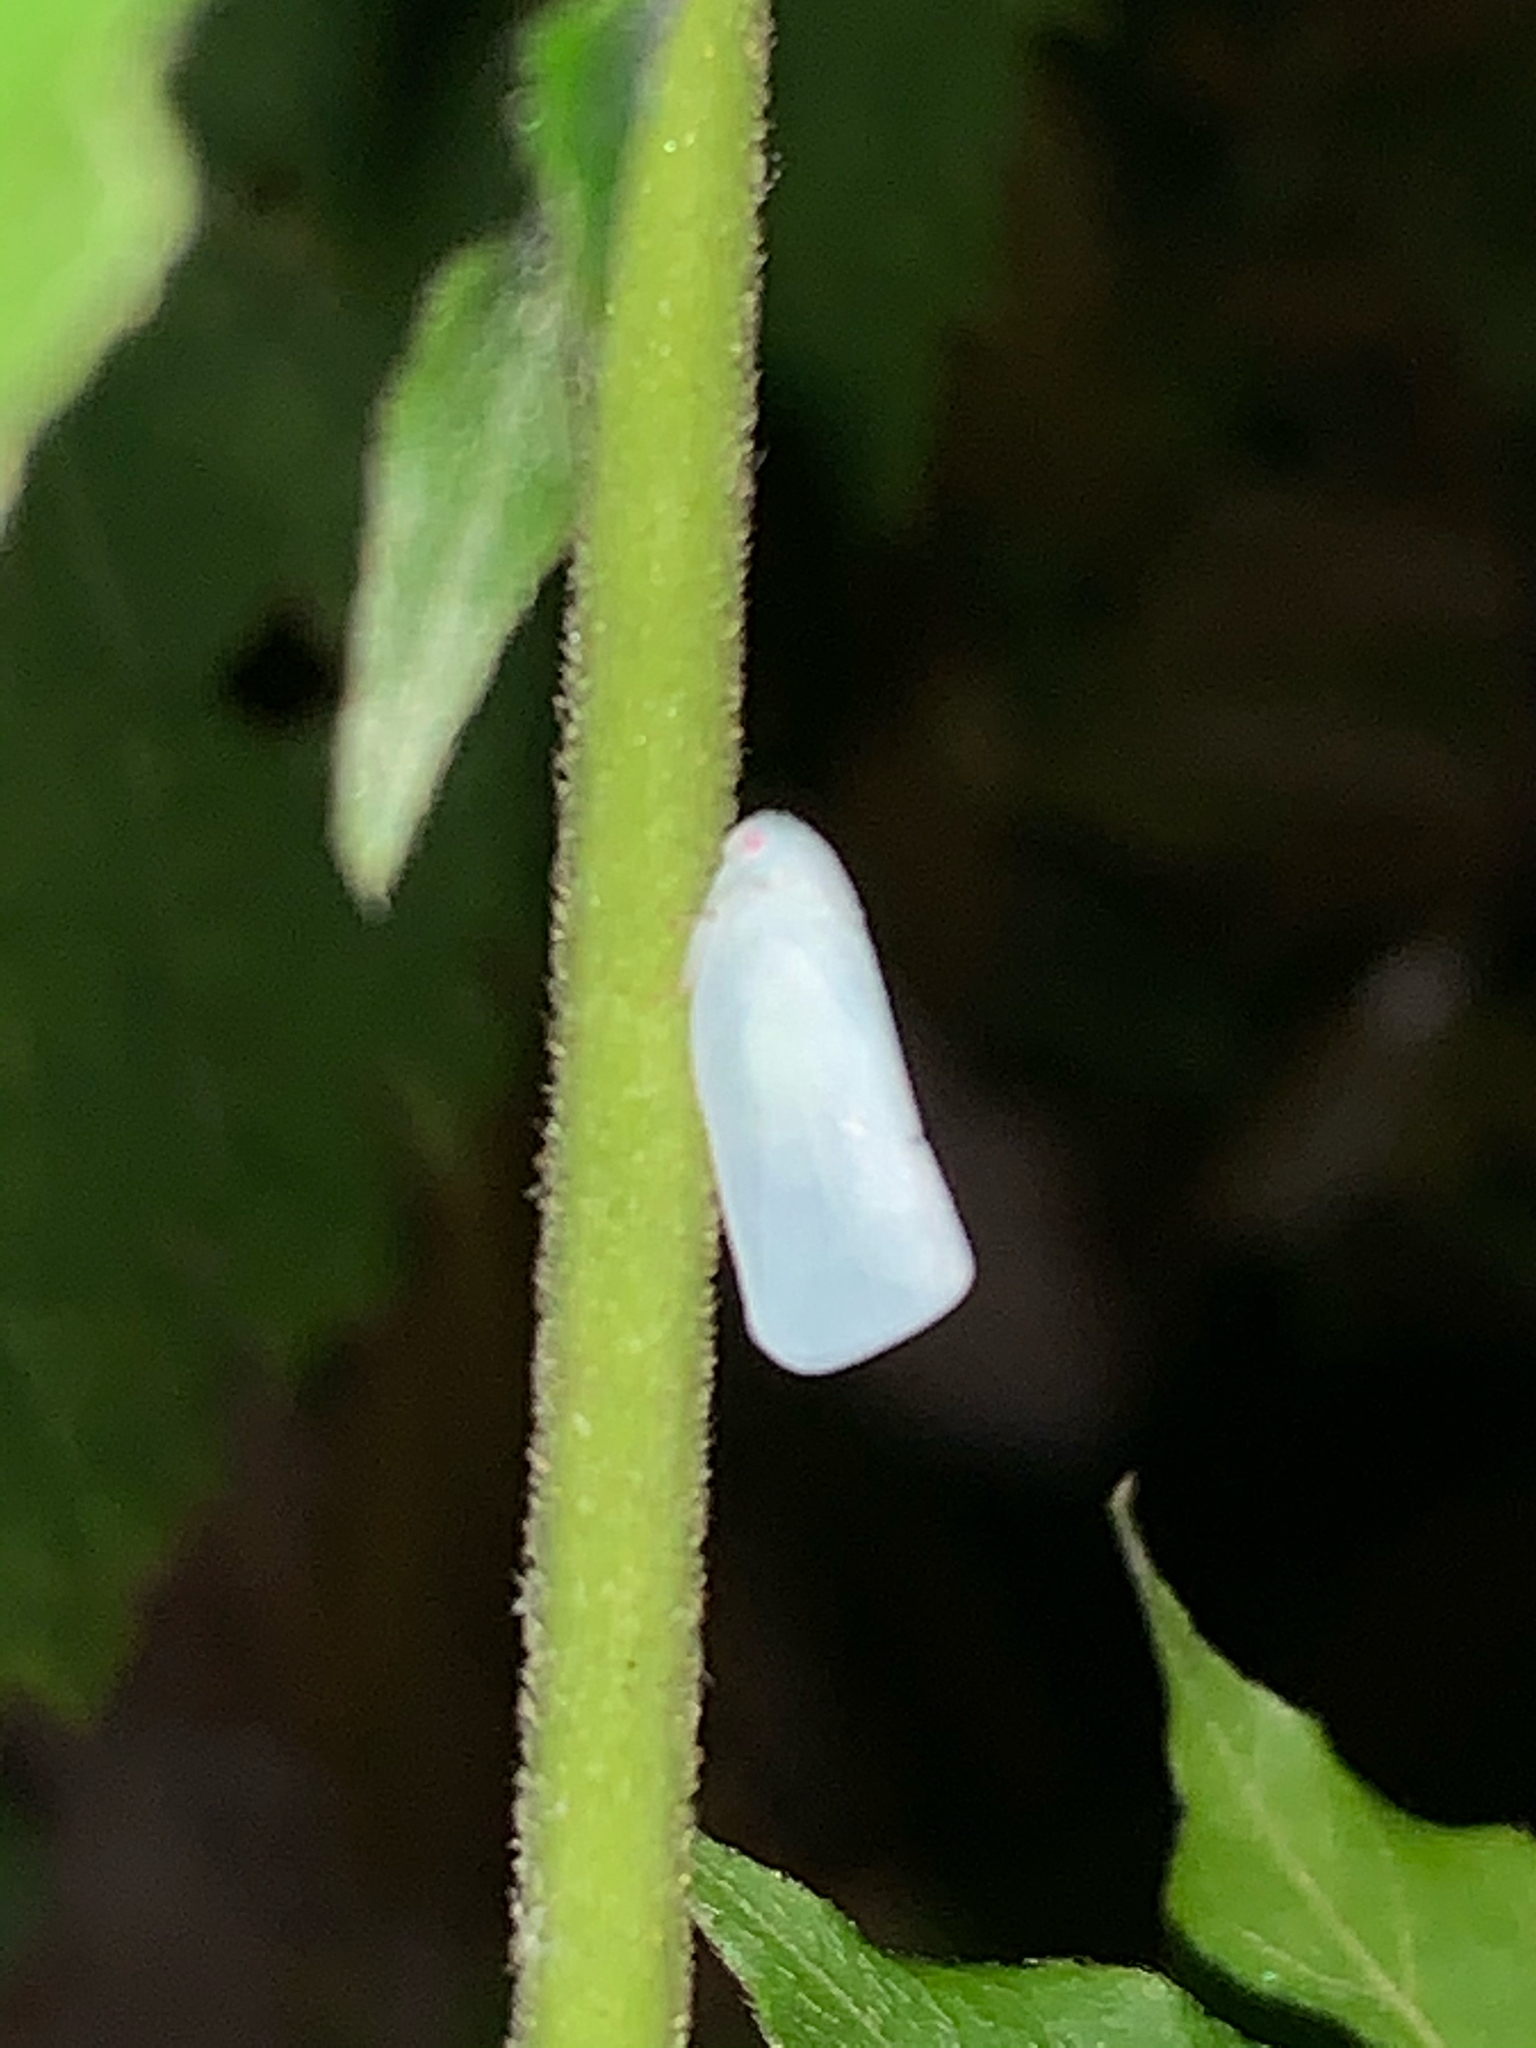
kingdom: Animalia
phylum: Arthropoda
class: Insecta
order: Hemiptera
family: Flatidae
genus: Flatormenis
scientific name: Flatormenis proxima
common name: Northern flatid planthopper
